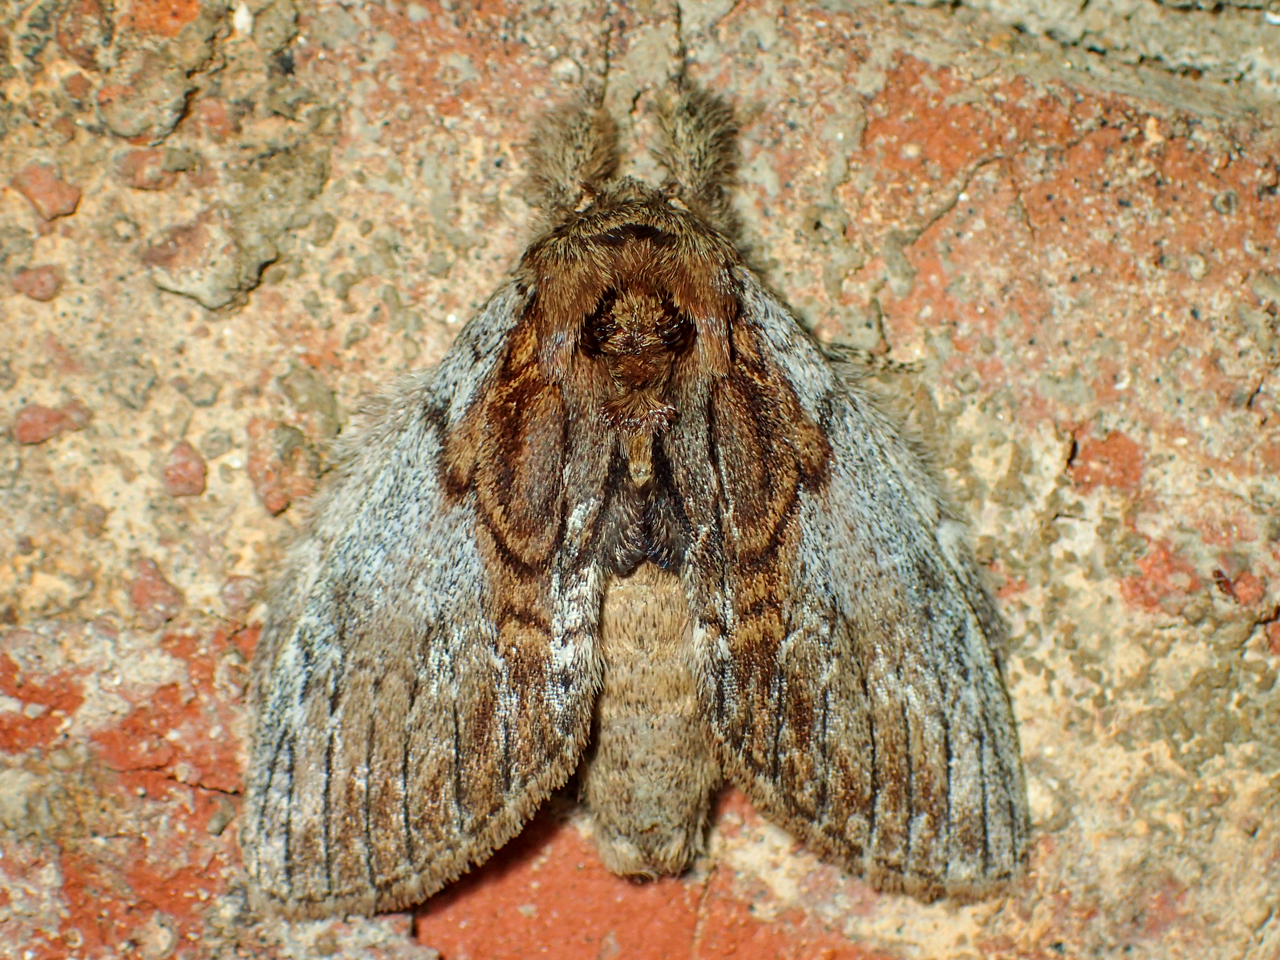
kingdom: Animalia
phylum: Arthropoda
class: Insecta
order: Lepidoptera
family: Notodontidae
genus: Peridea
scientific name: Peridea basitriens
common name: Oval-based prominent
